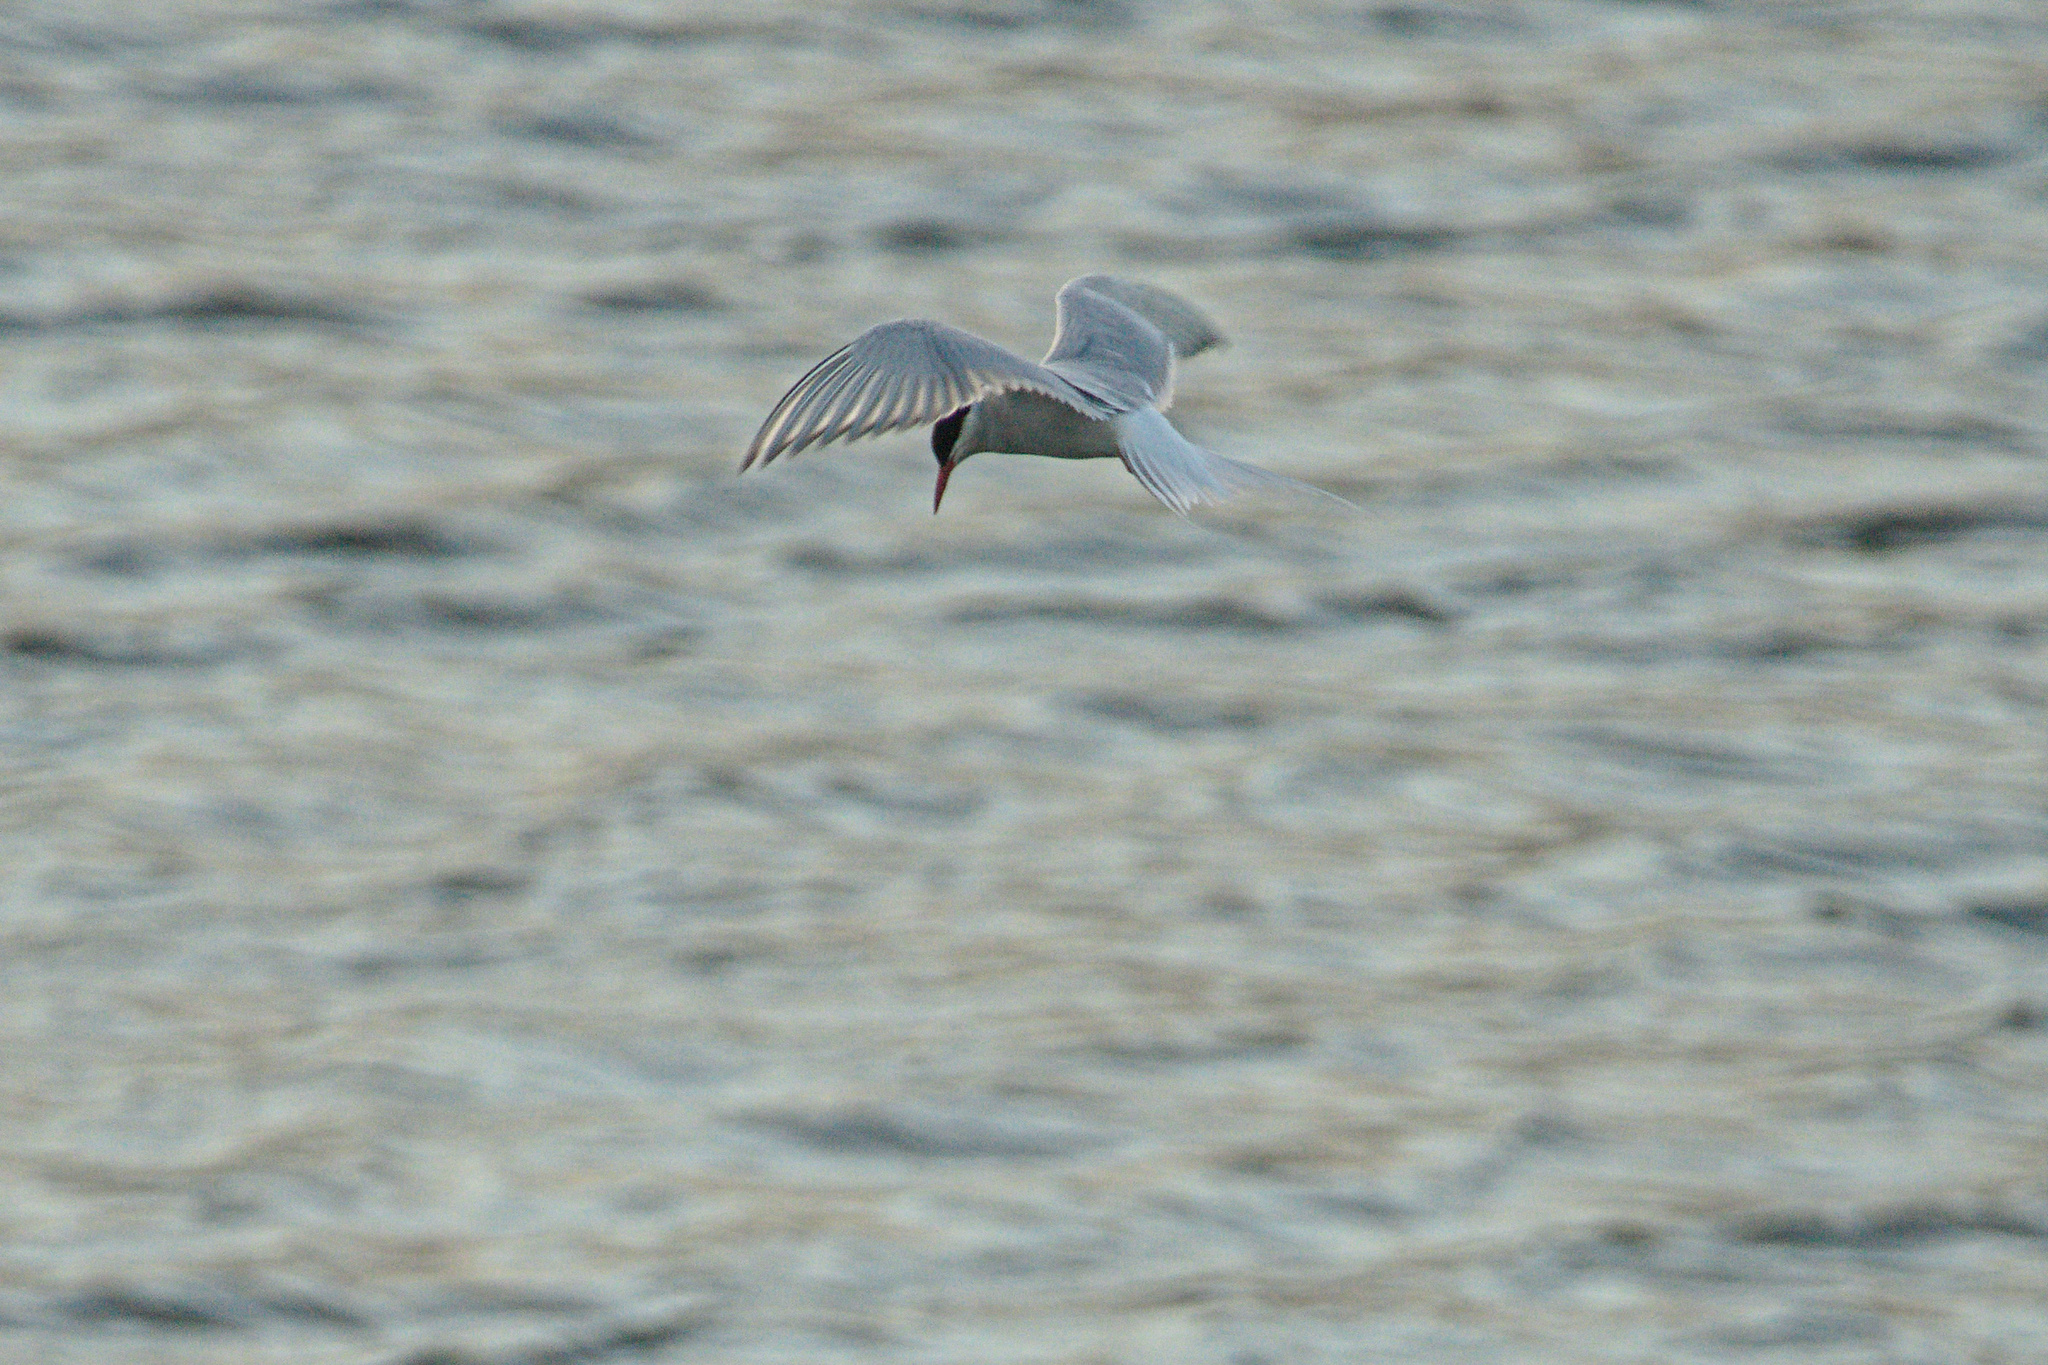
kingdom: Animalia
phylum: Chordata
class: Aves
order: Charadriiformes
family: Laridae
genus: Sterna
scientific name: Sterna paradisaea
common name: Arctic tern
